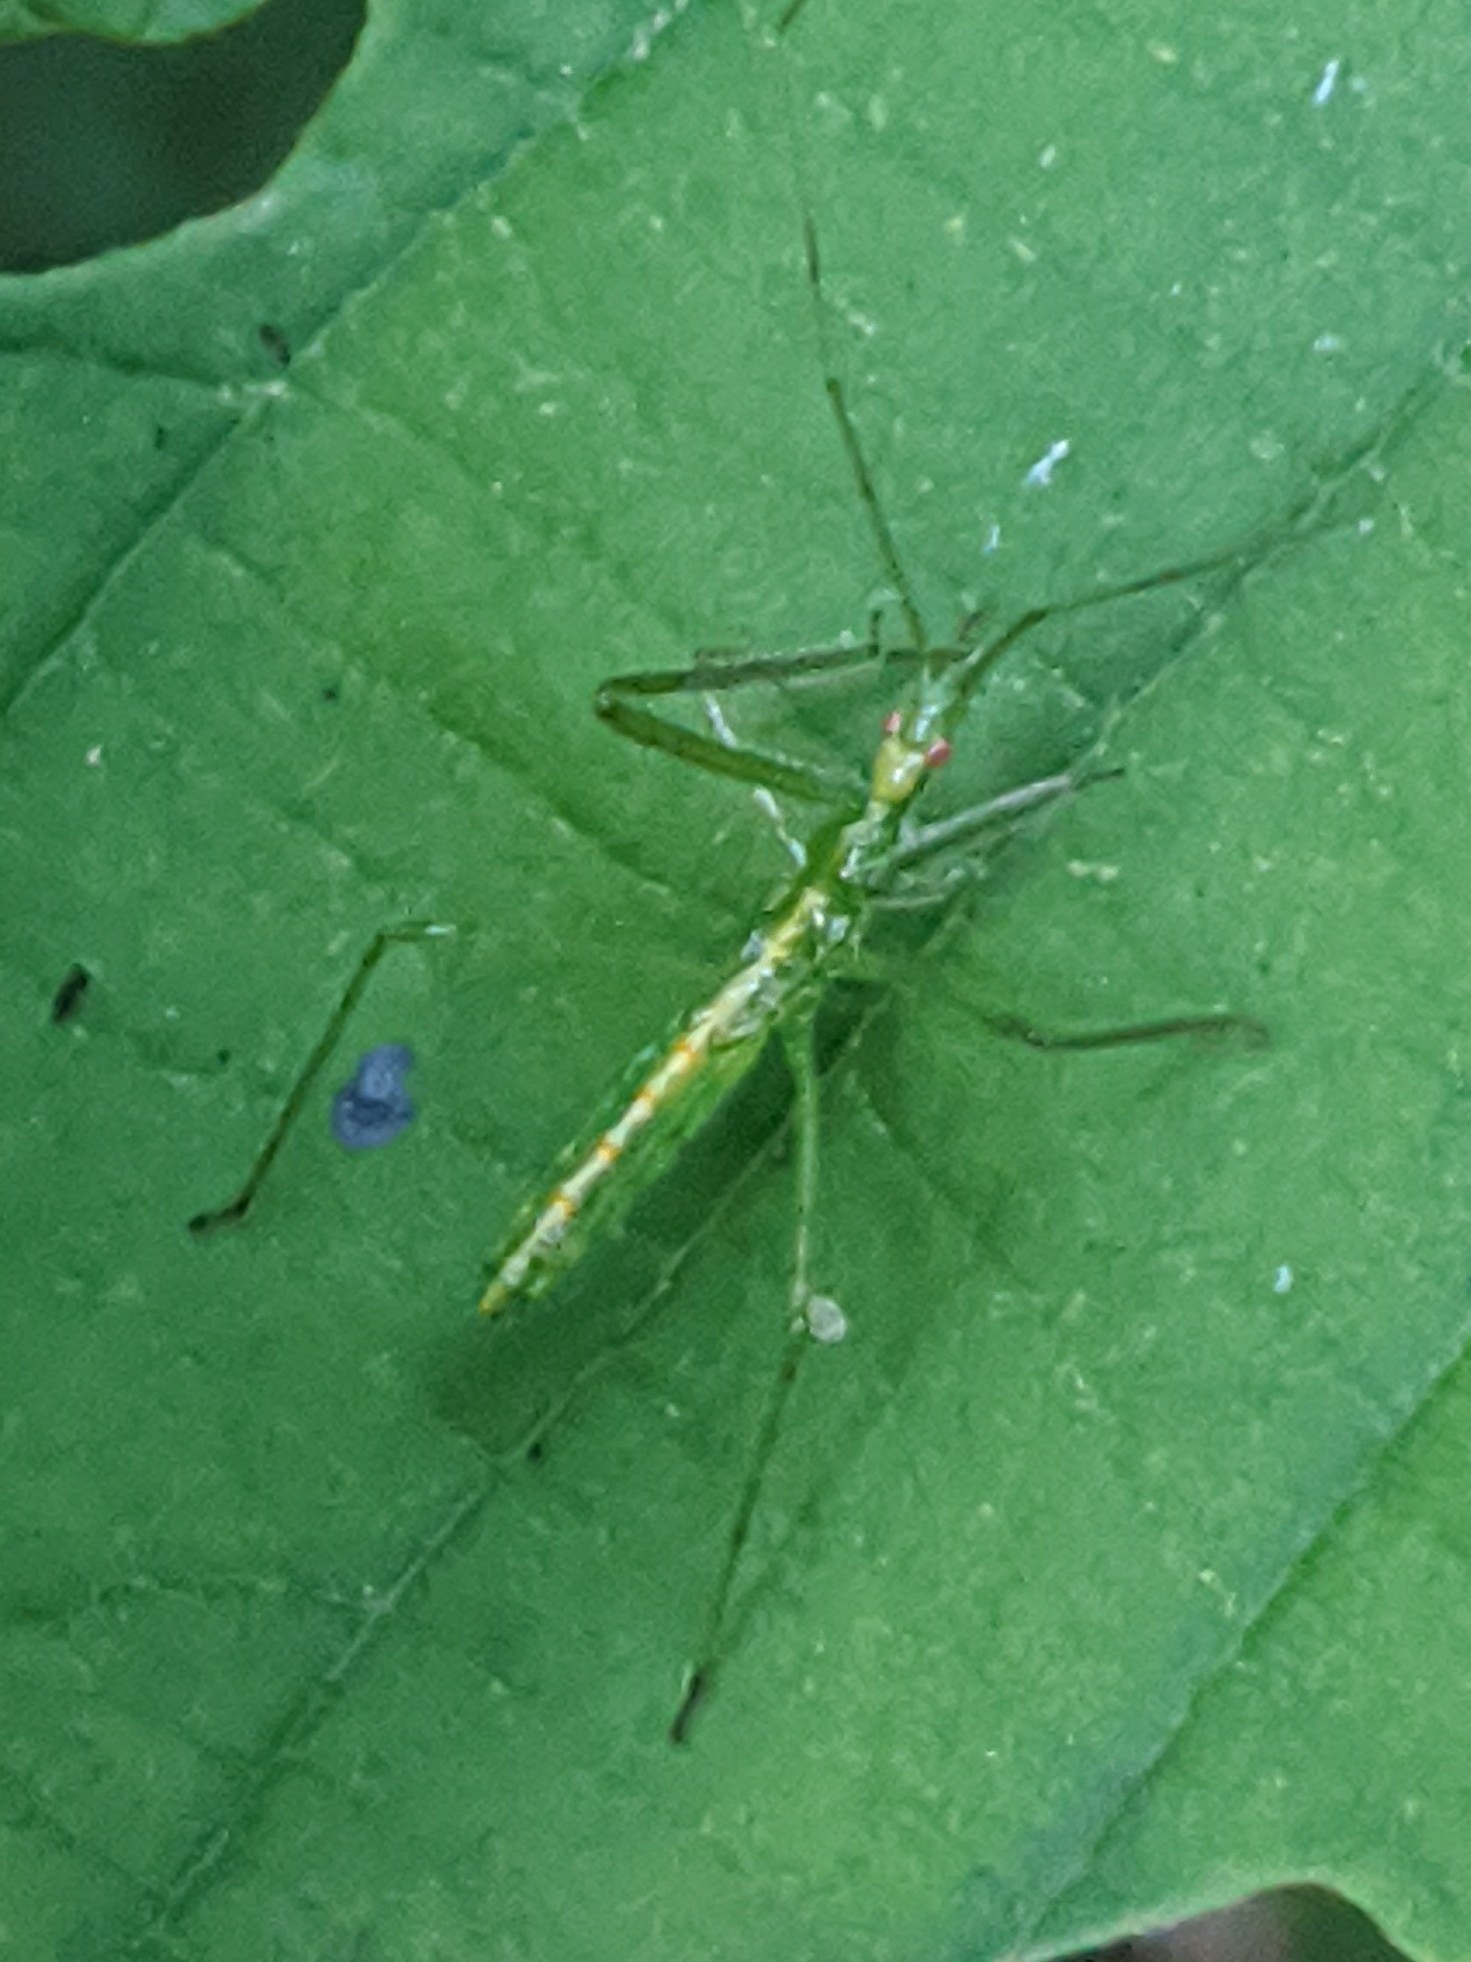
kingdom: Animalia
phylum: Arthropoda
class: Insecta
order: Hemiptera
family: Reduviidae
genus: Zelus
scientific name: Zelus luridus
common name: Pale green assassin bug
